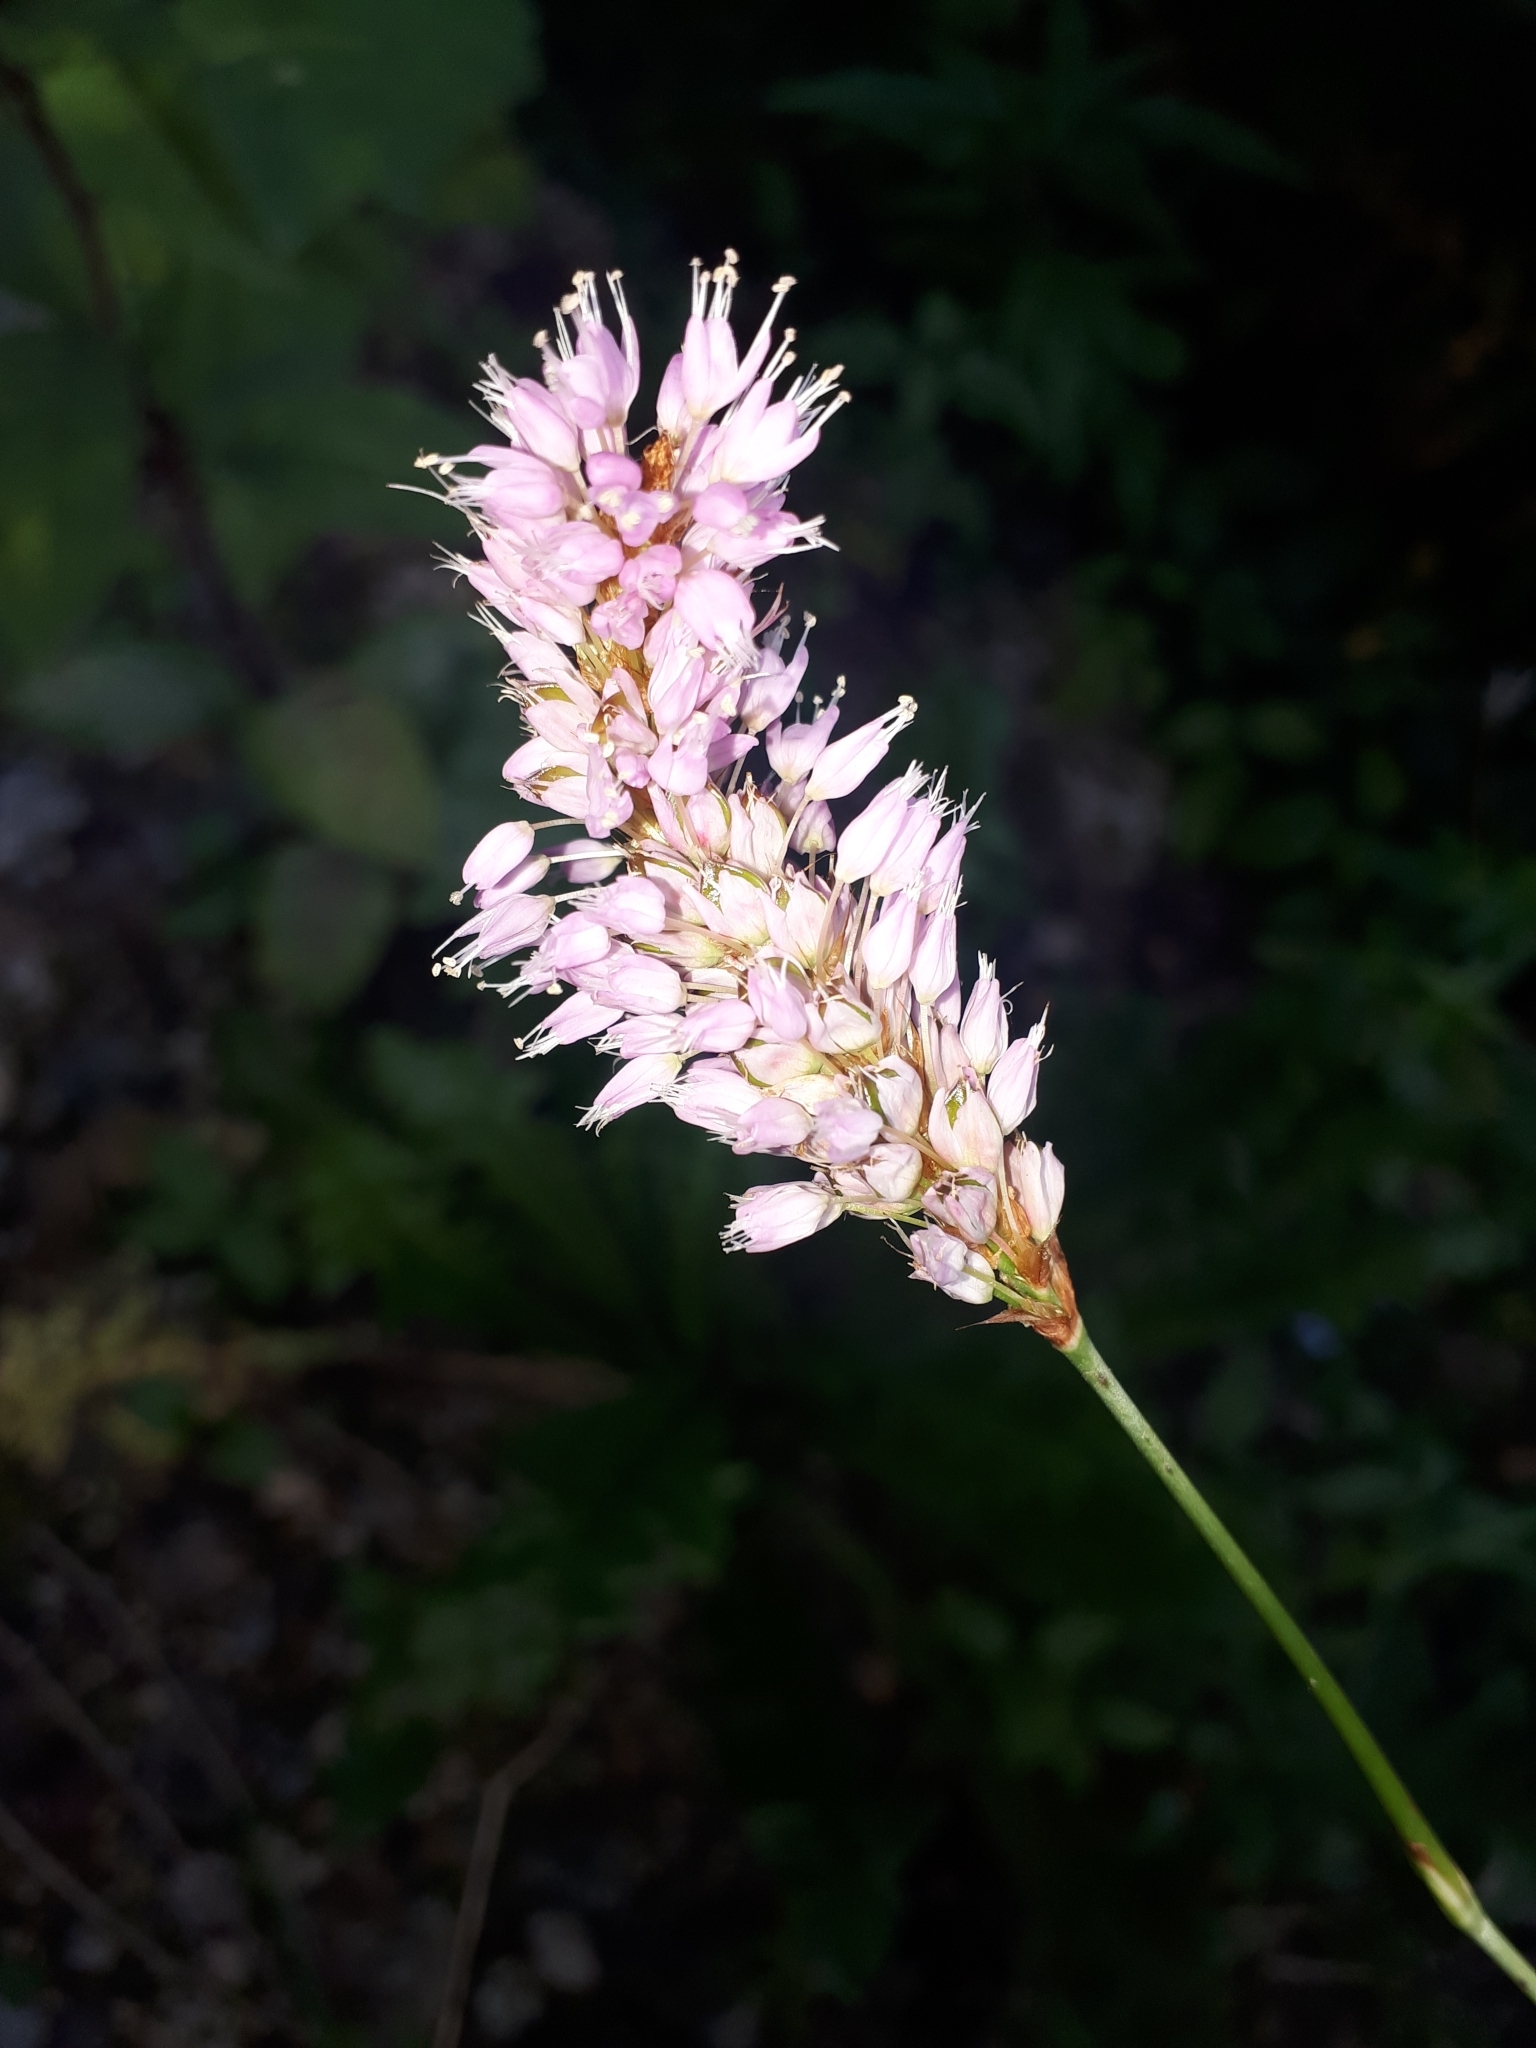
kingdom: Plantae
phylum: Tracheophyta
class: Magnoliopsida
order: Caryophyllales
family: Polygonaceae
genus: Bistorta
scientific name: Bistorta officinalis
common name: Common bistort
